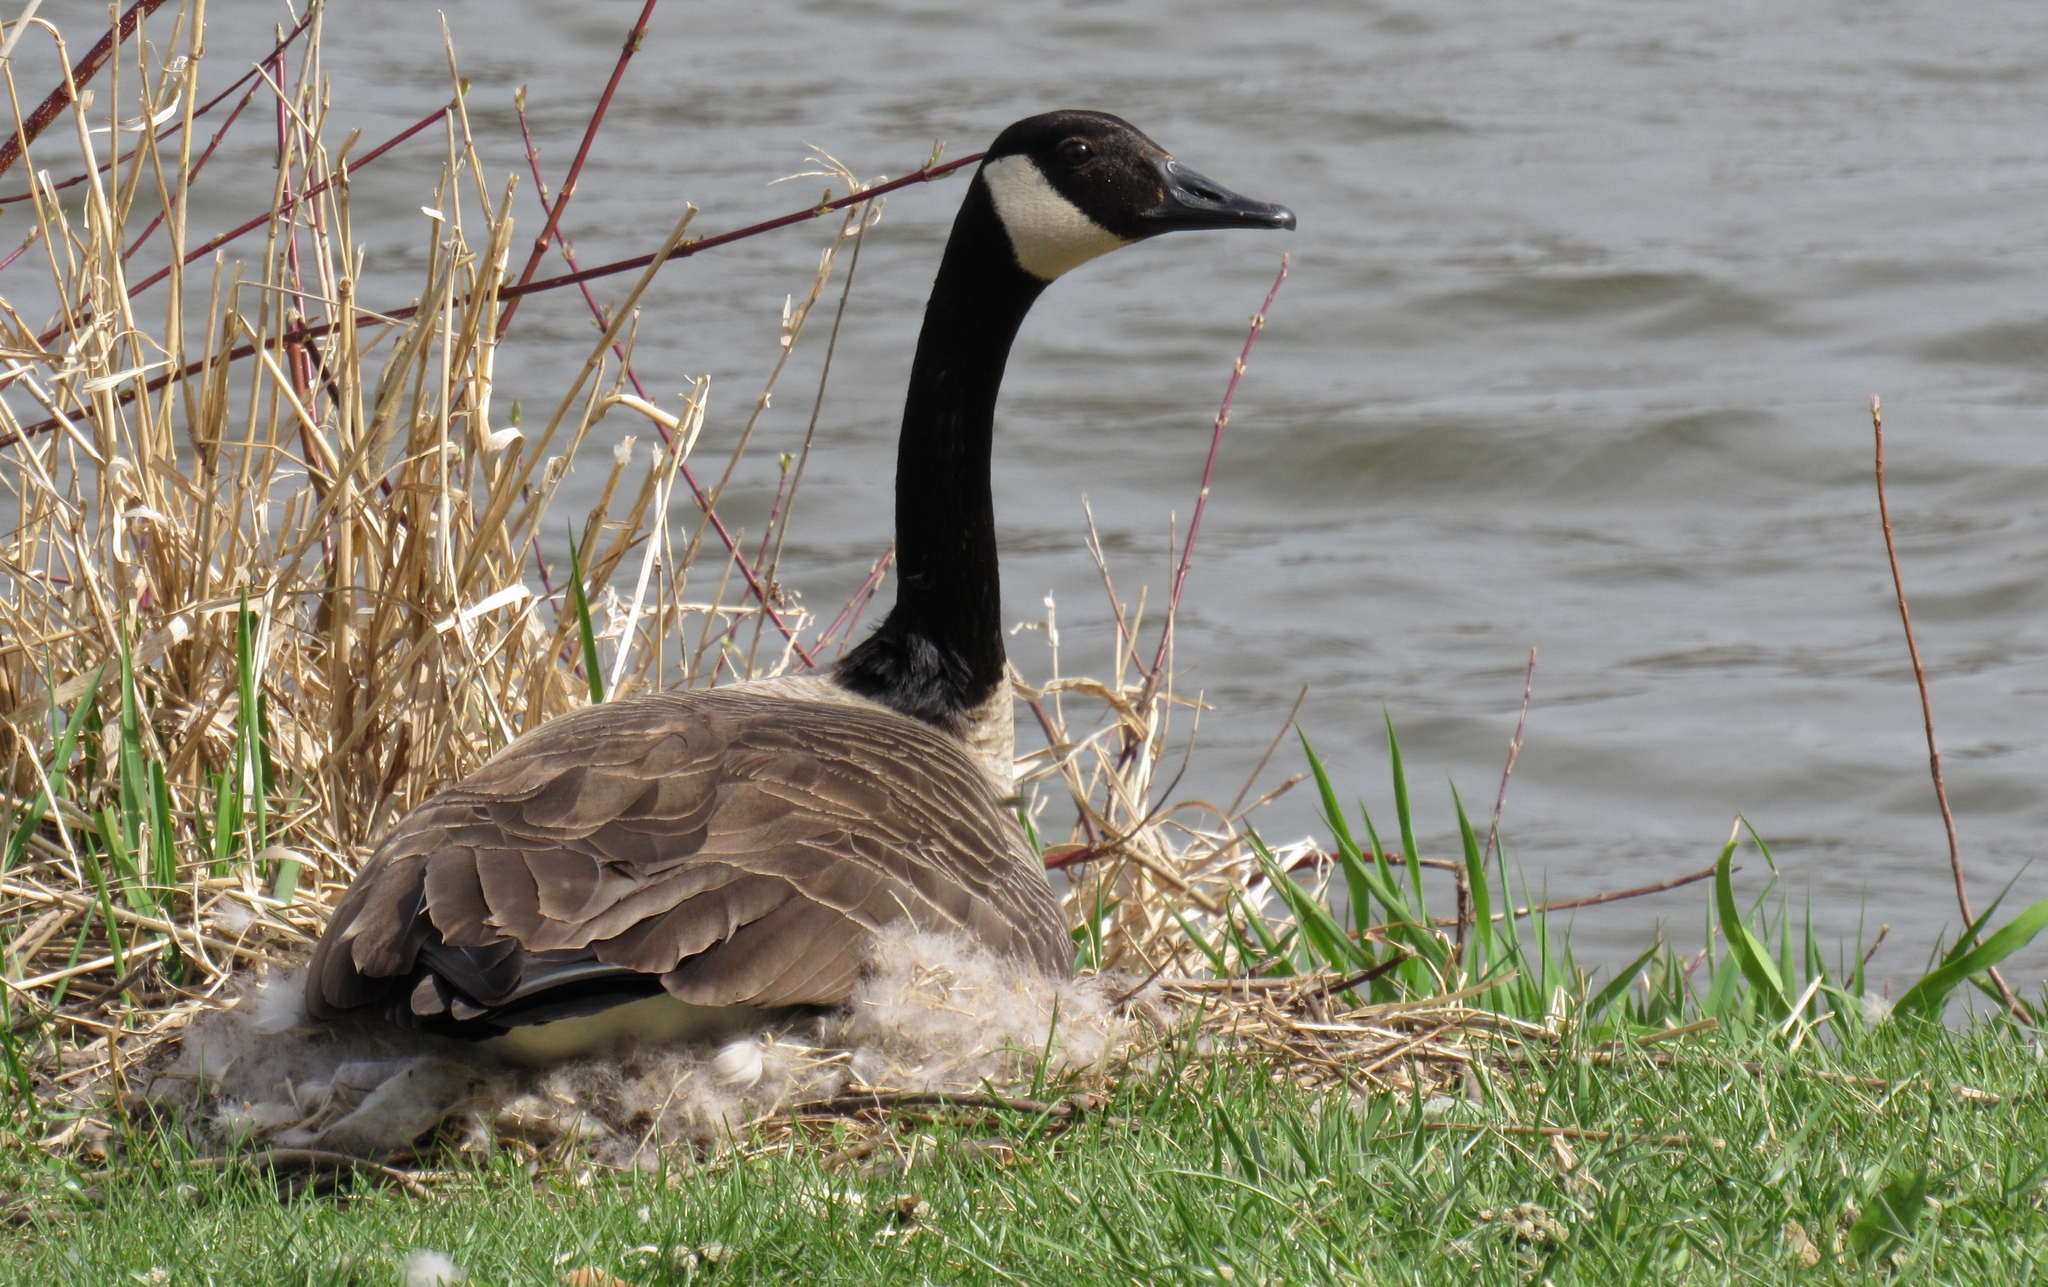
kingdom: Animalia
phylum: Chordata
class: Aves
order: Anseriformes
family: Anatidae
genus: Branta
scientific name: Branta canadensis
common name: Canada goose
